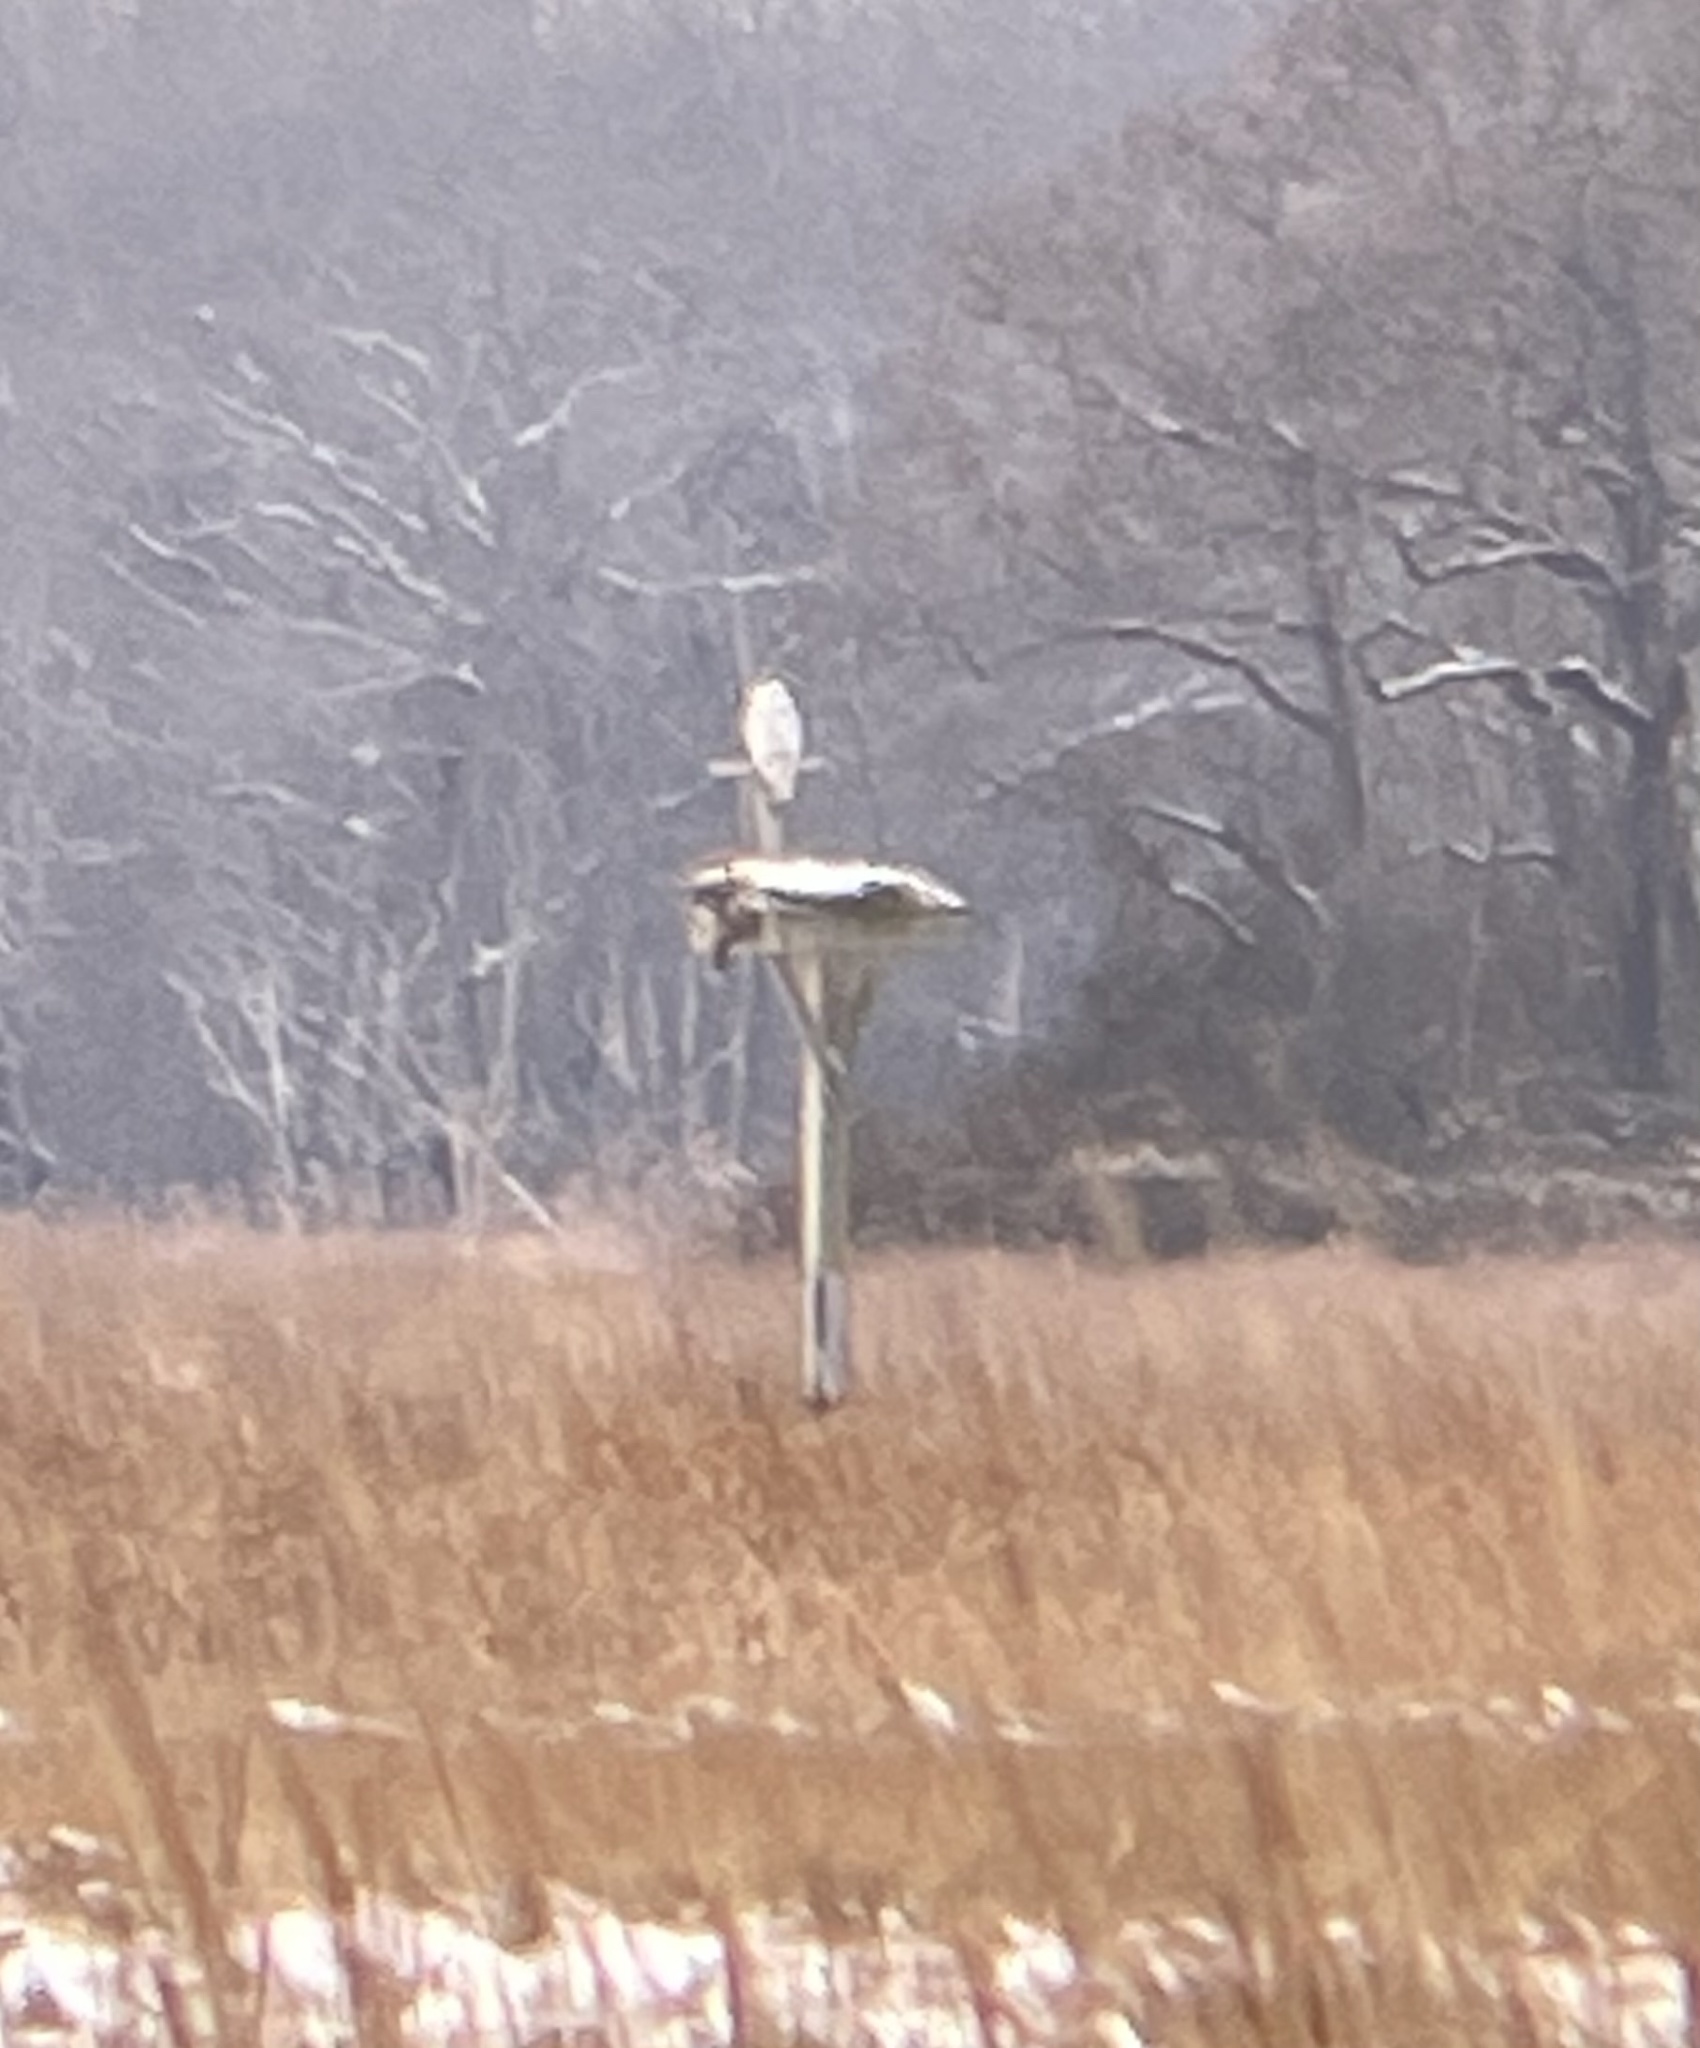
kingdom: Animalia
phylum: Chordata
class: Aves
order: Strigiformes
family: Strigidae
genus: Bubo
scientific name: Bubo scandiacus
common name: Snowy owl
